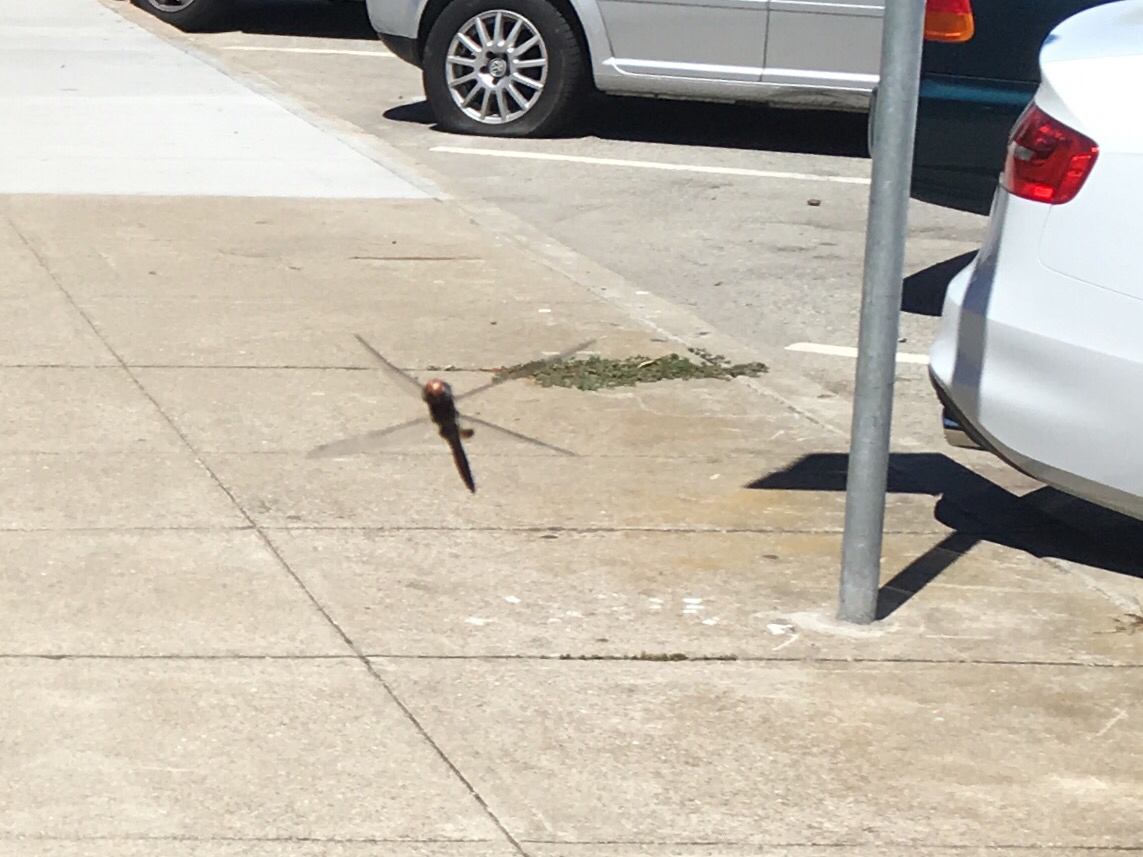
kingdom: Animalia
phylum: Arthropoda
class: Insecta
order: Odonata
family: Libellulidae
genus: Pantala
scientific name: Pantala hymenaea
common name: Spot-winged glider
